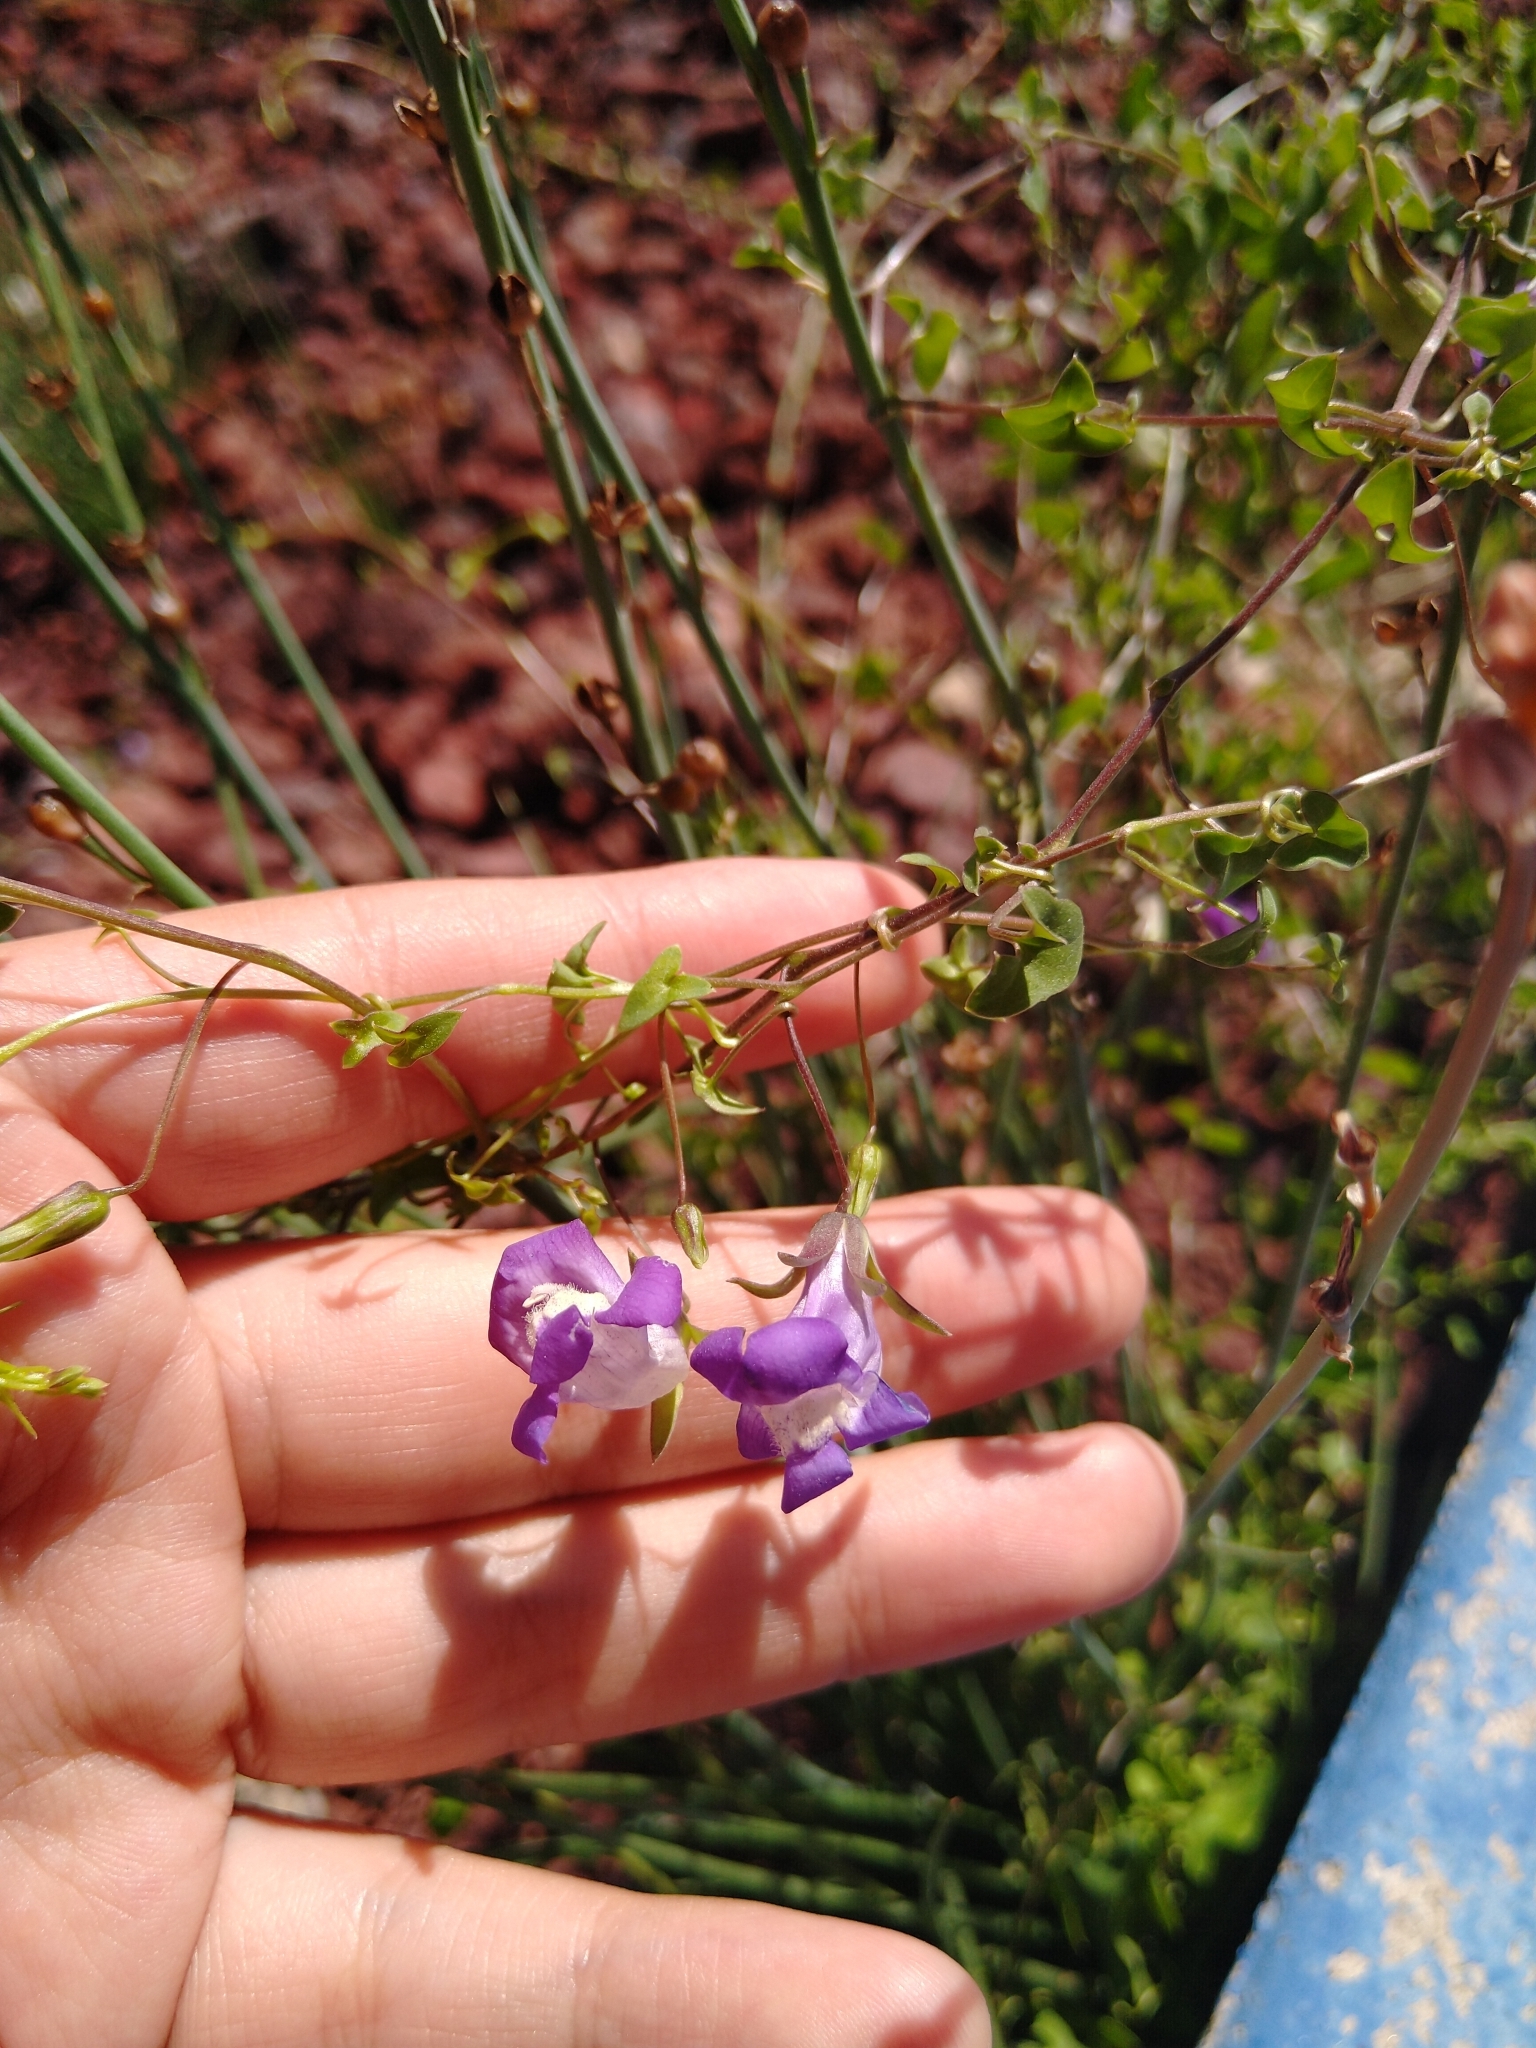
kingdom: Plantae
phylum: Tracheophyta
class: Magnoliopsida
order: Lamiales
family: Plantaginaceae
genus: Maurandella
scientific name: Maurandella antirrhiniflora
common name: Violet twining-snapdragon
